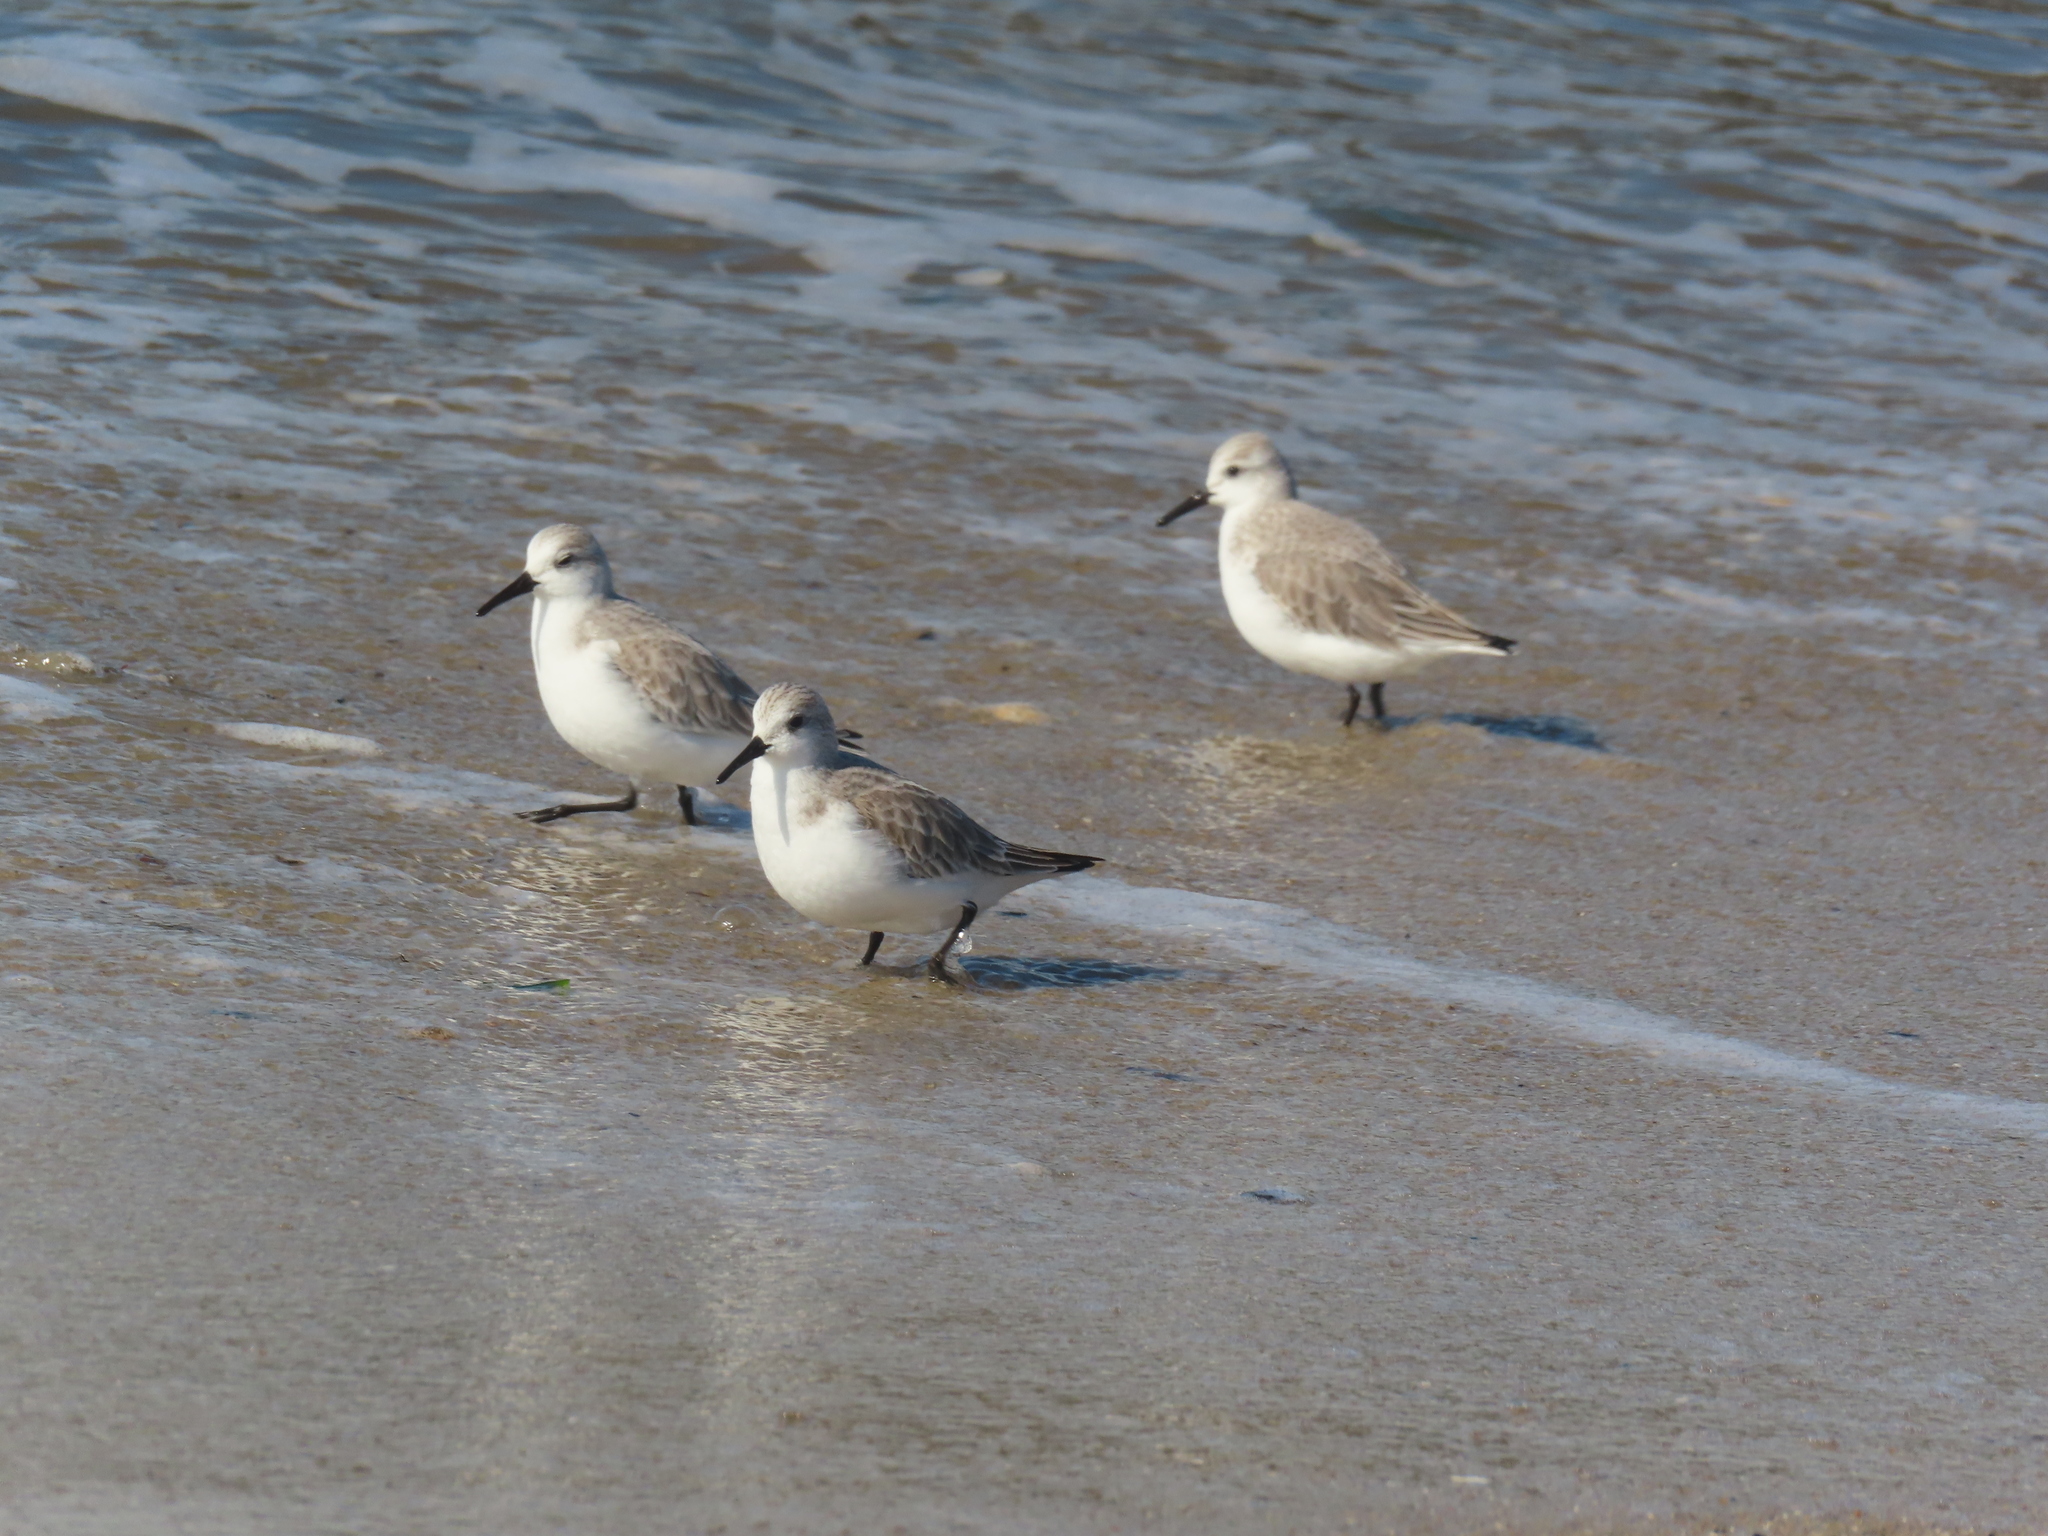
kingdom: Animalia
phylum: Chordata
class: Aves
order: Charadriiformes
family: Scolopacidae
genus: Calidris
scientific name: Calidris alba
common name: Sanderling
